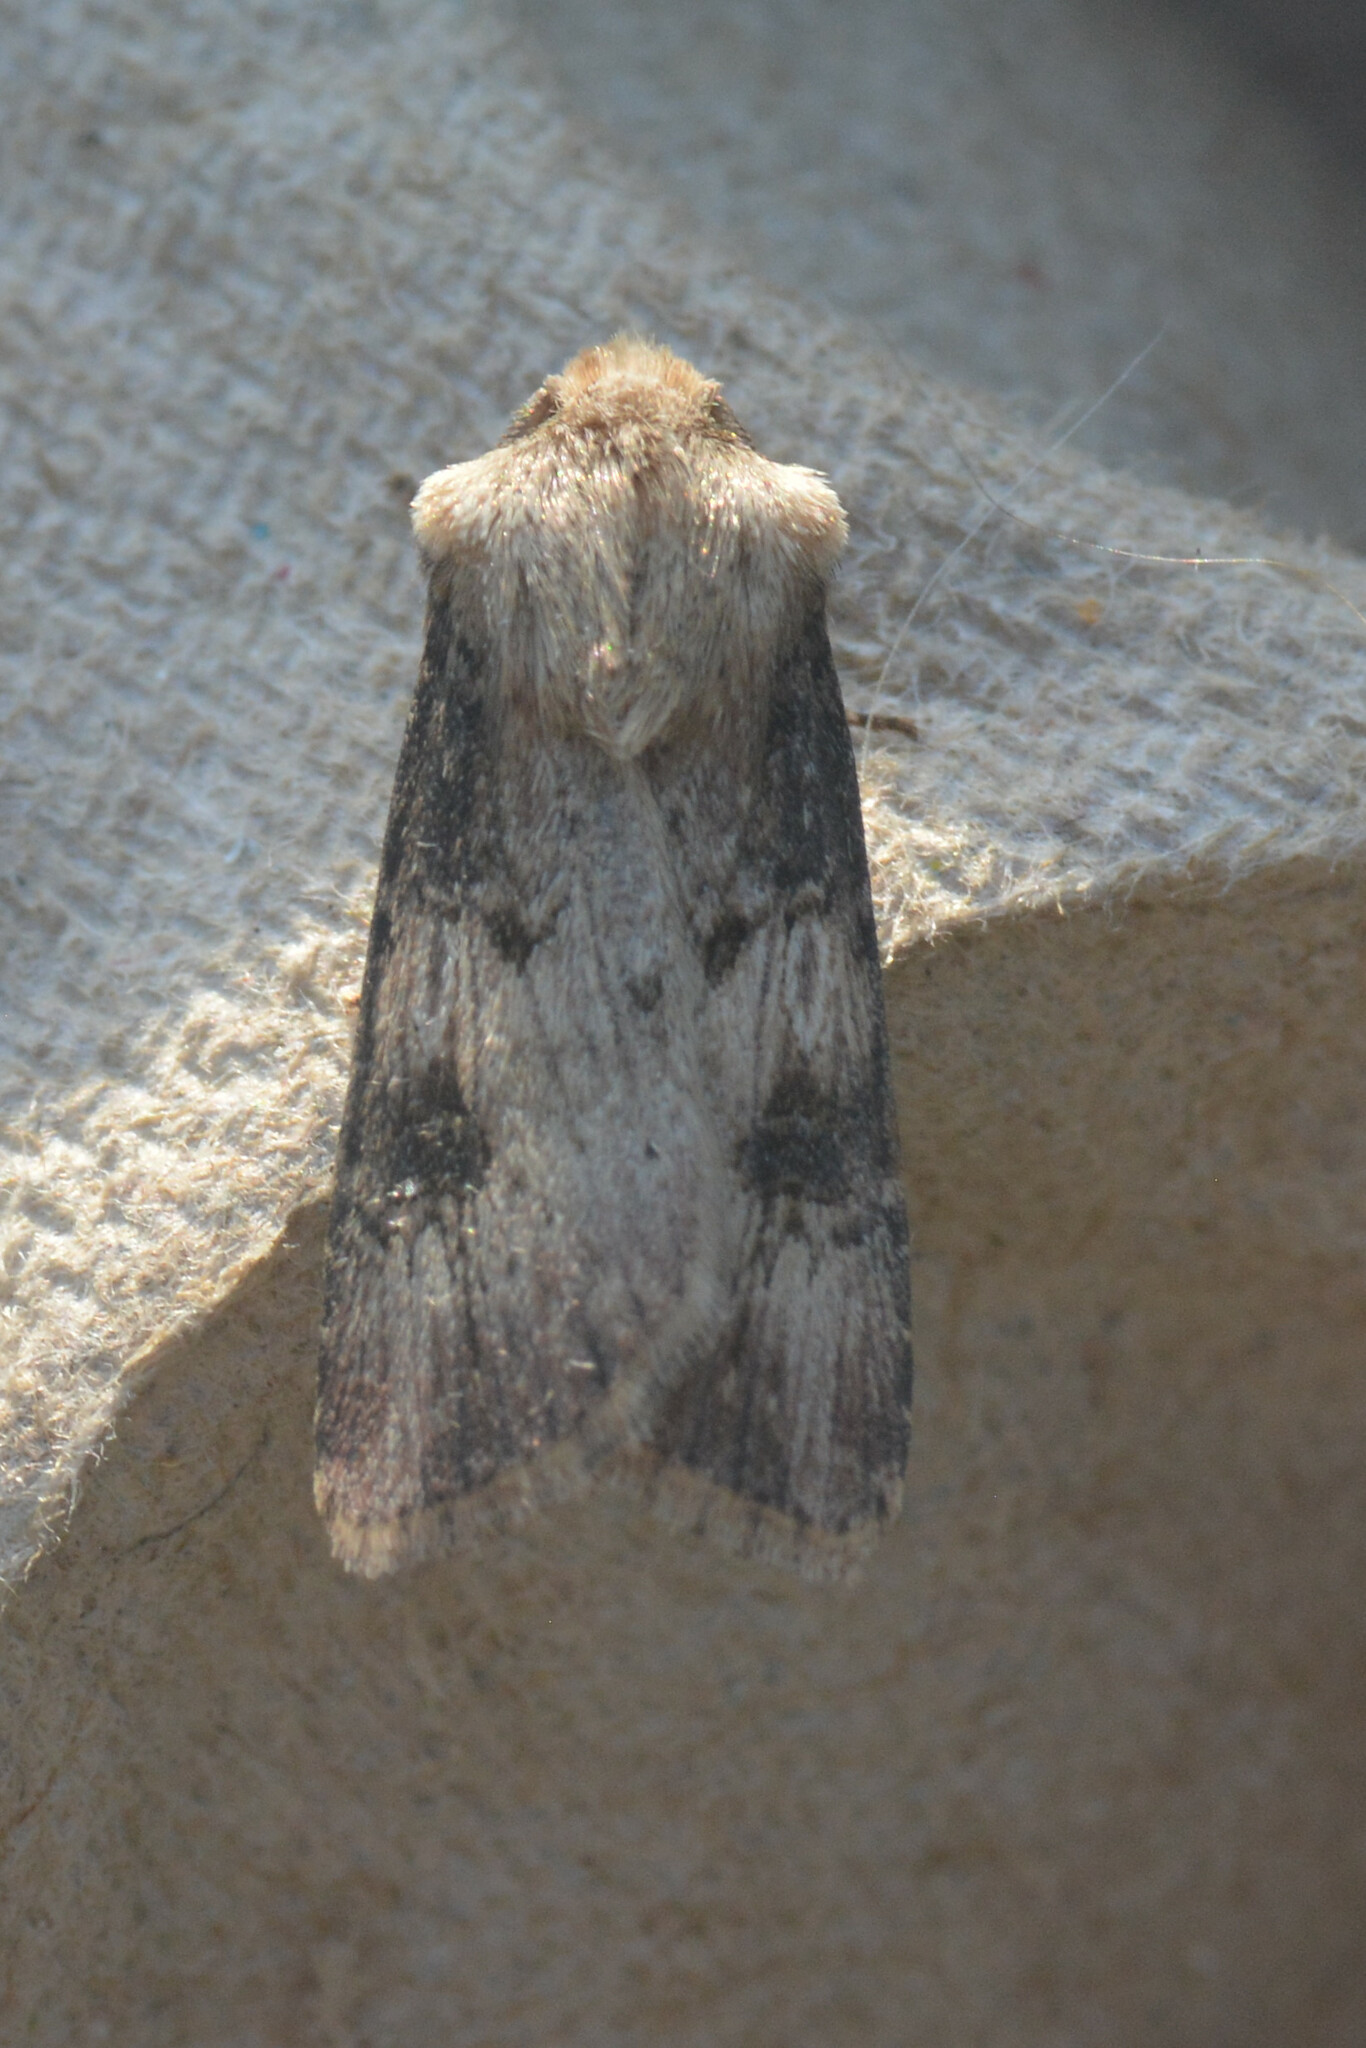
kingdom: Animalia
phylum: Arthropoda
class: Insecta
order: Lepidoptera
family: Noctuidae
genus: Agrotis
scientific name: Agrotis puta
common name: Shuttle-shaped dart
